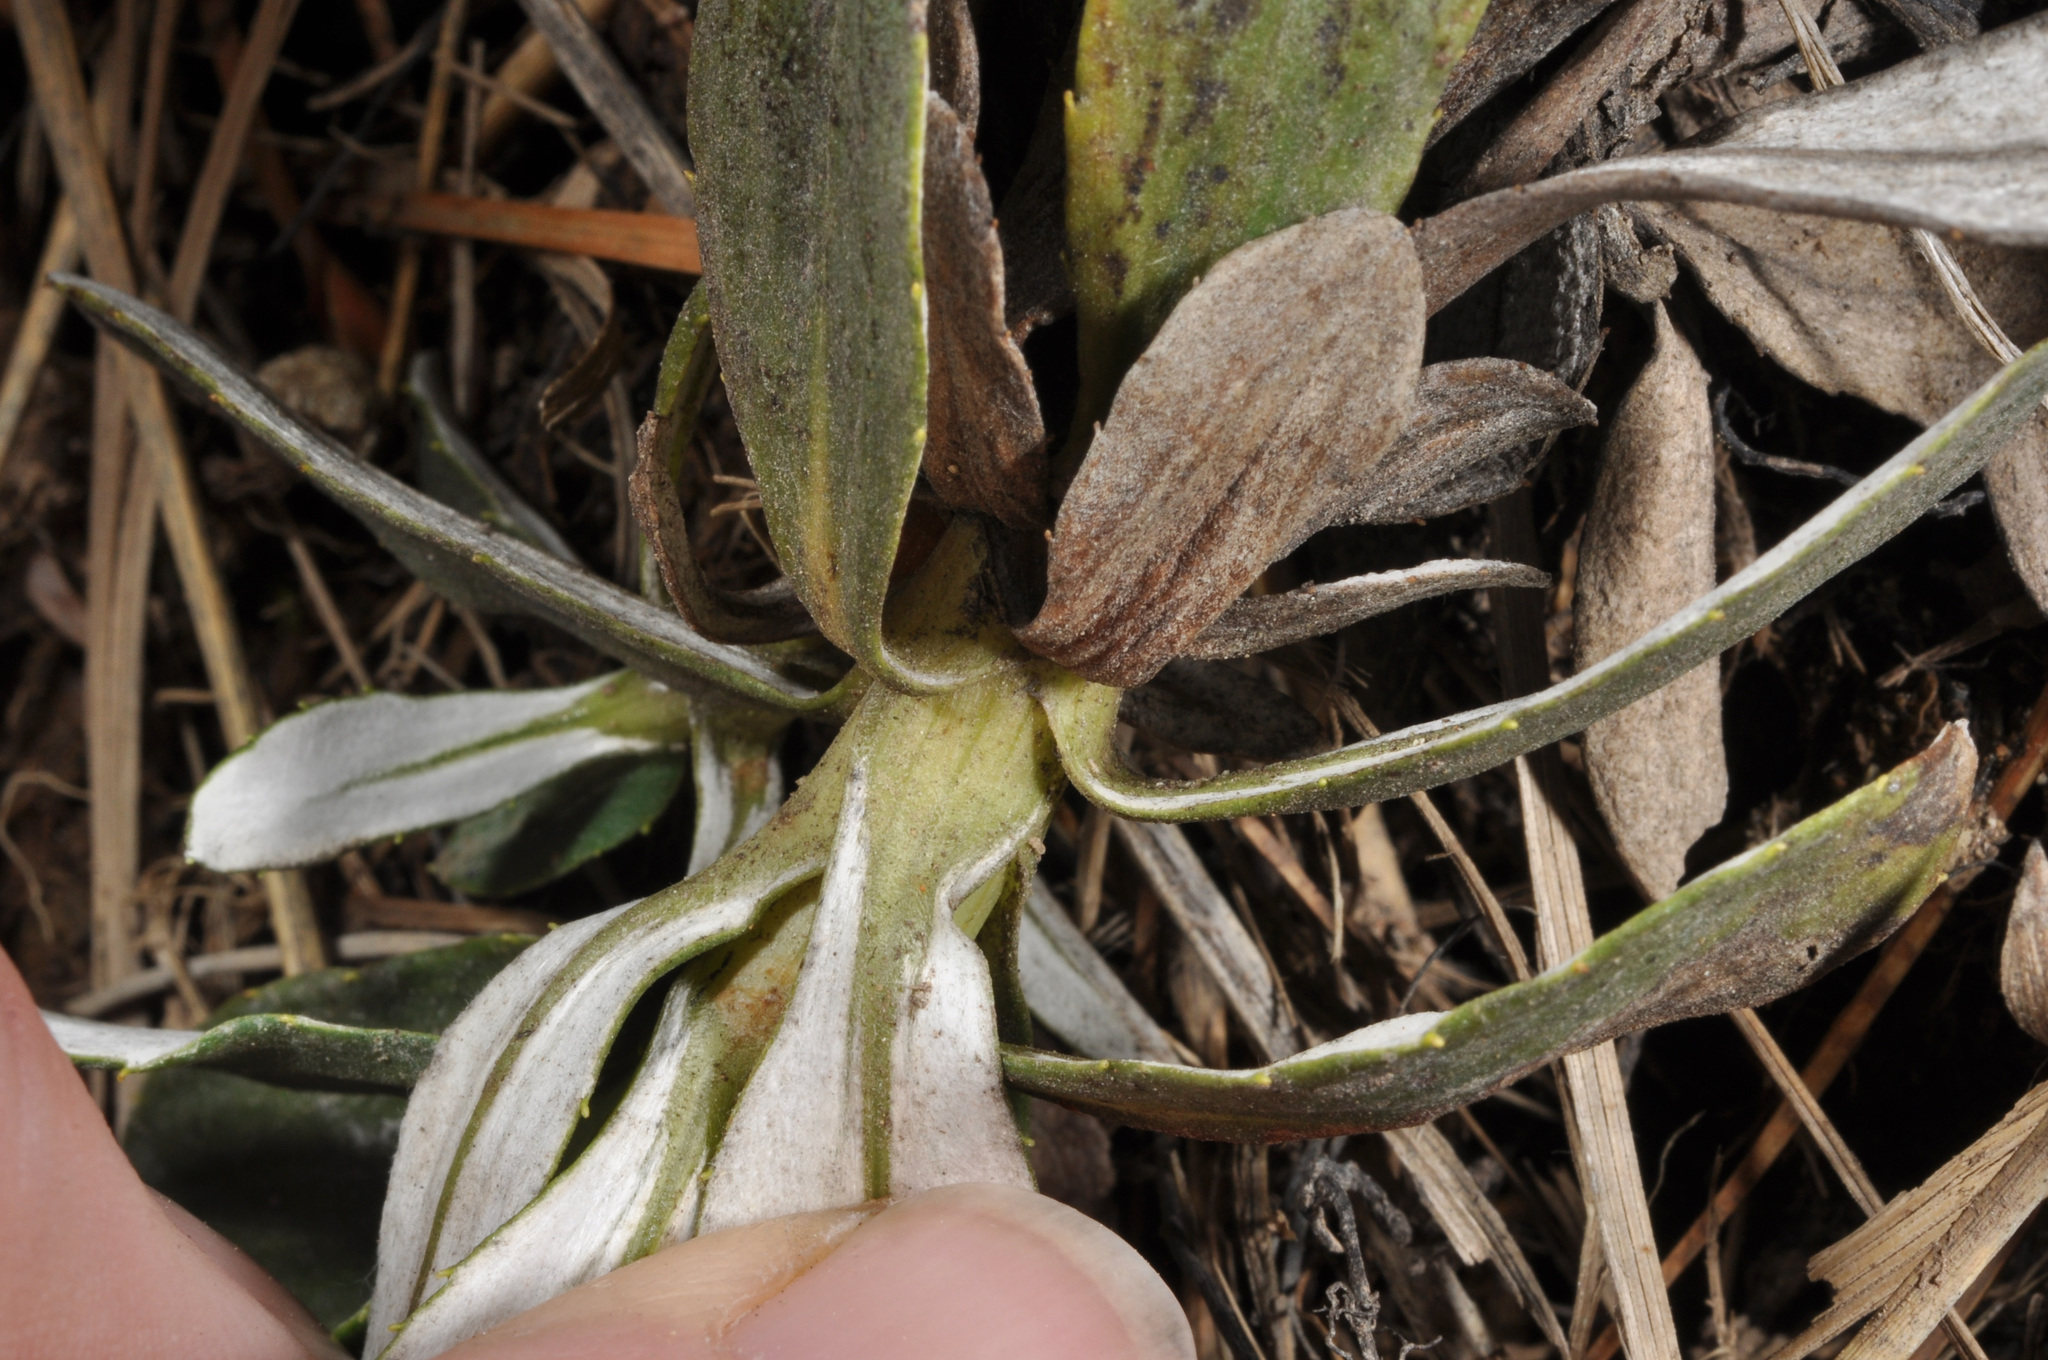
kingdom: Plantae
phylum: Tracheophyta
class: Magnoliopsida
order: Asterales
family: Asteraceae
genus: Celmisia
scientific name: Celmisia haastii
